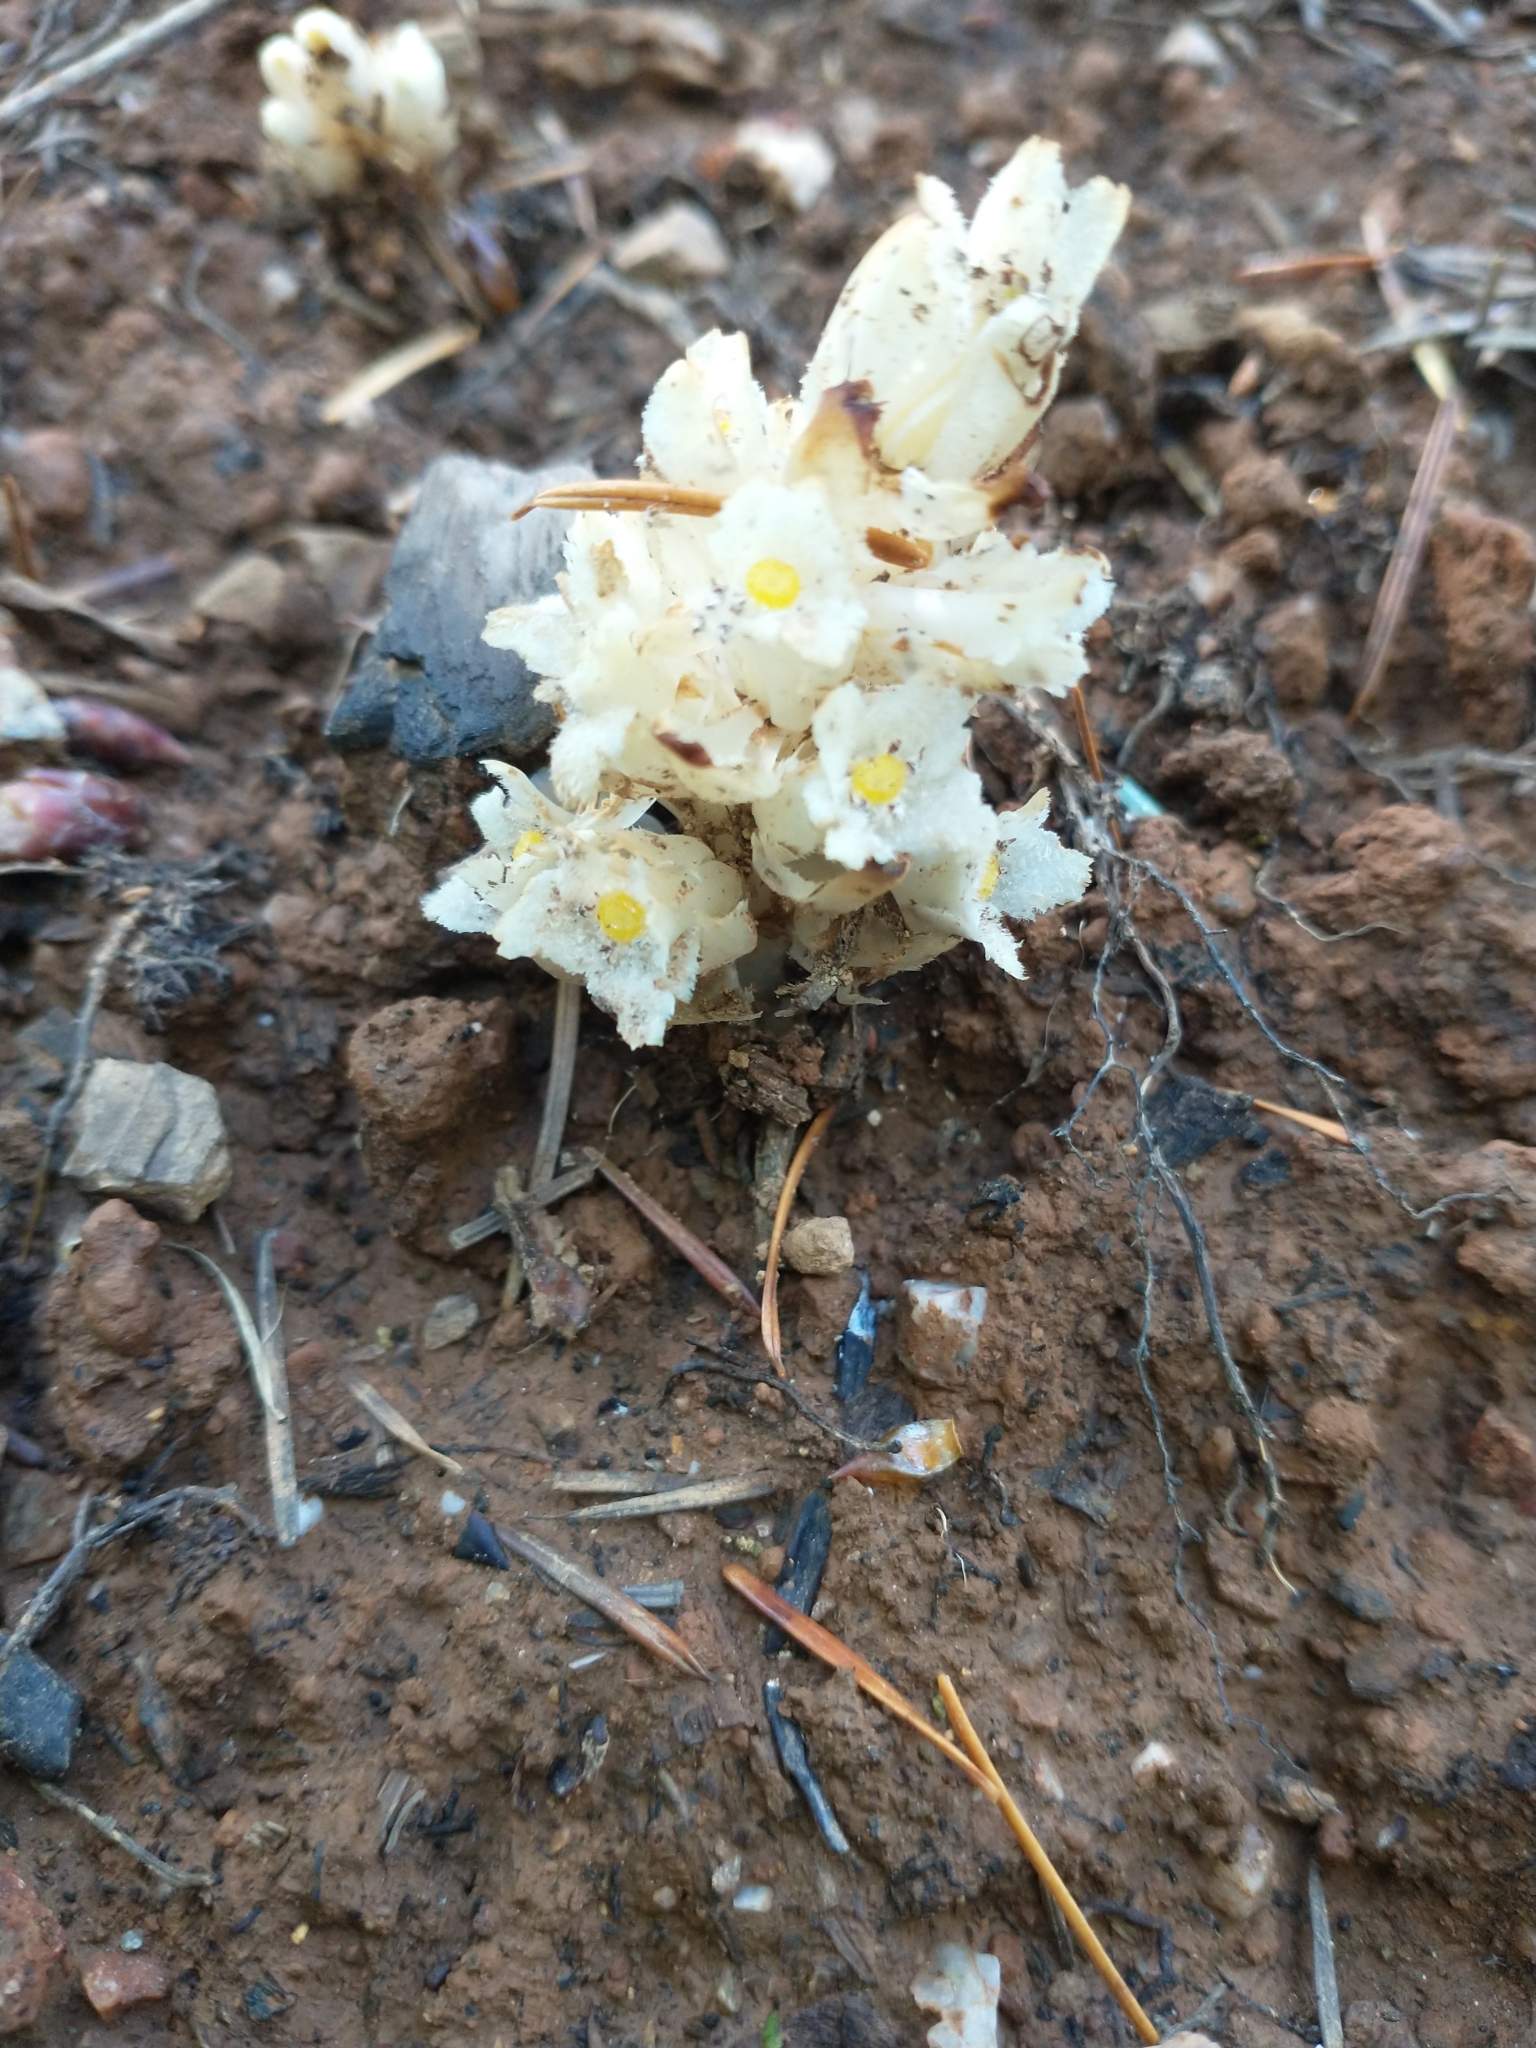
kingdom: Plantae
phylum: Tracheophyta
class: Magnoliopsida
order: Ericales
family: Ericaceae
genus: Pityopus
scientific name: Pityopus californica
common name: California pinefoot
